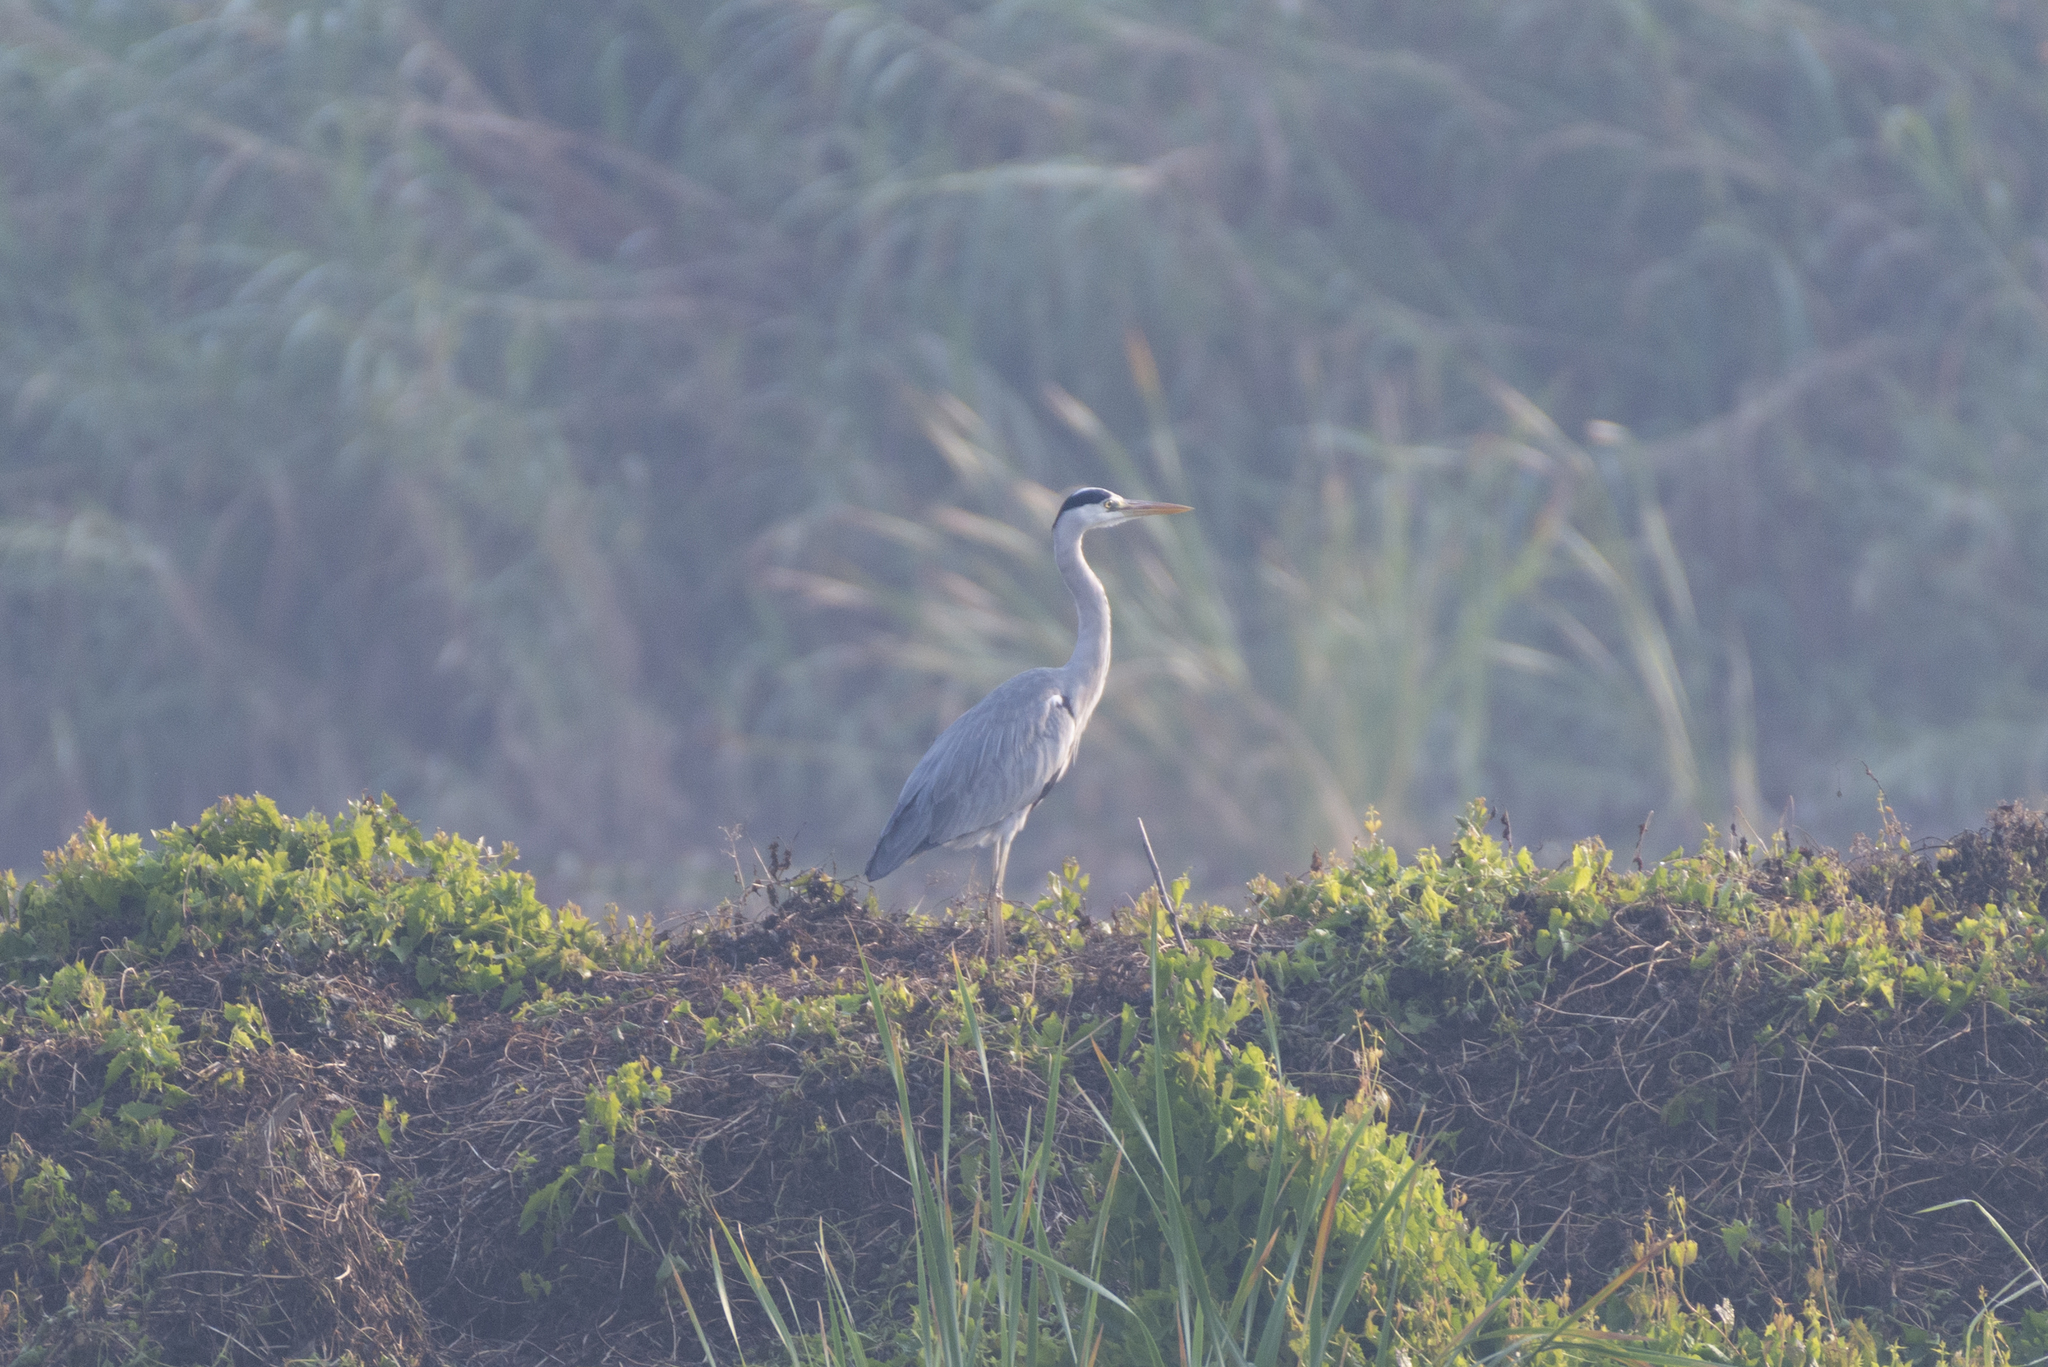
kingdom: Animalia
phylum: Chordata
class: Aves
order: Pelecaniformes
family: Ardeidae
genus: Ardea
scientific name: Ardea cinerea
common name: Grey heron
